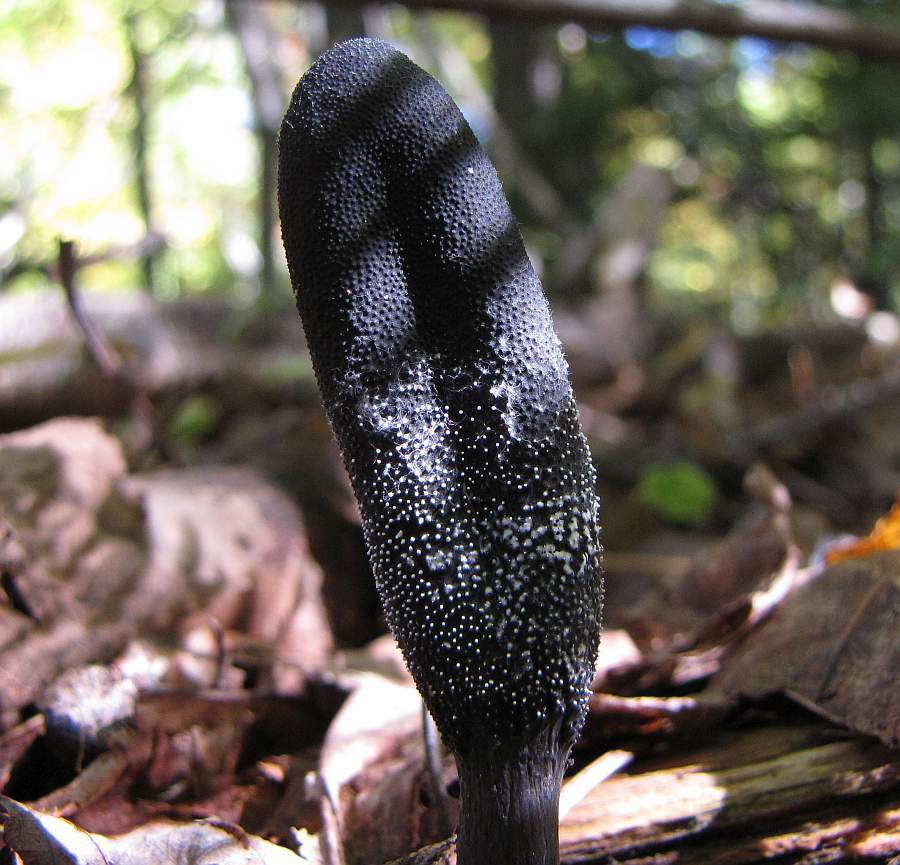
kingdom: Fungi
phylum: Ascomycota
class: Sordariomycetes
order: Hypocreales
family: Ophiocordycipitaceae
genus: Tolypocladium
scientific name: Tolypocladium ophioglossoides
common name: Snaketongue truffleclub
